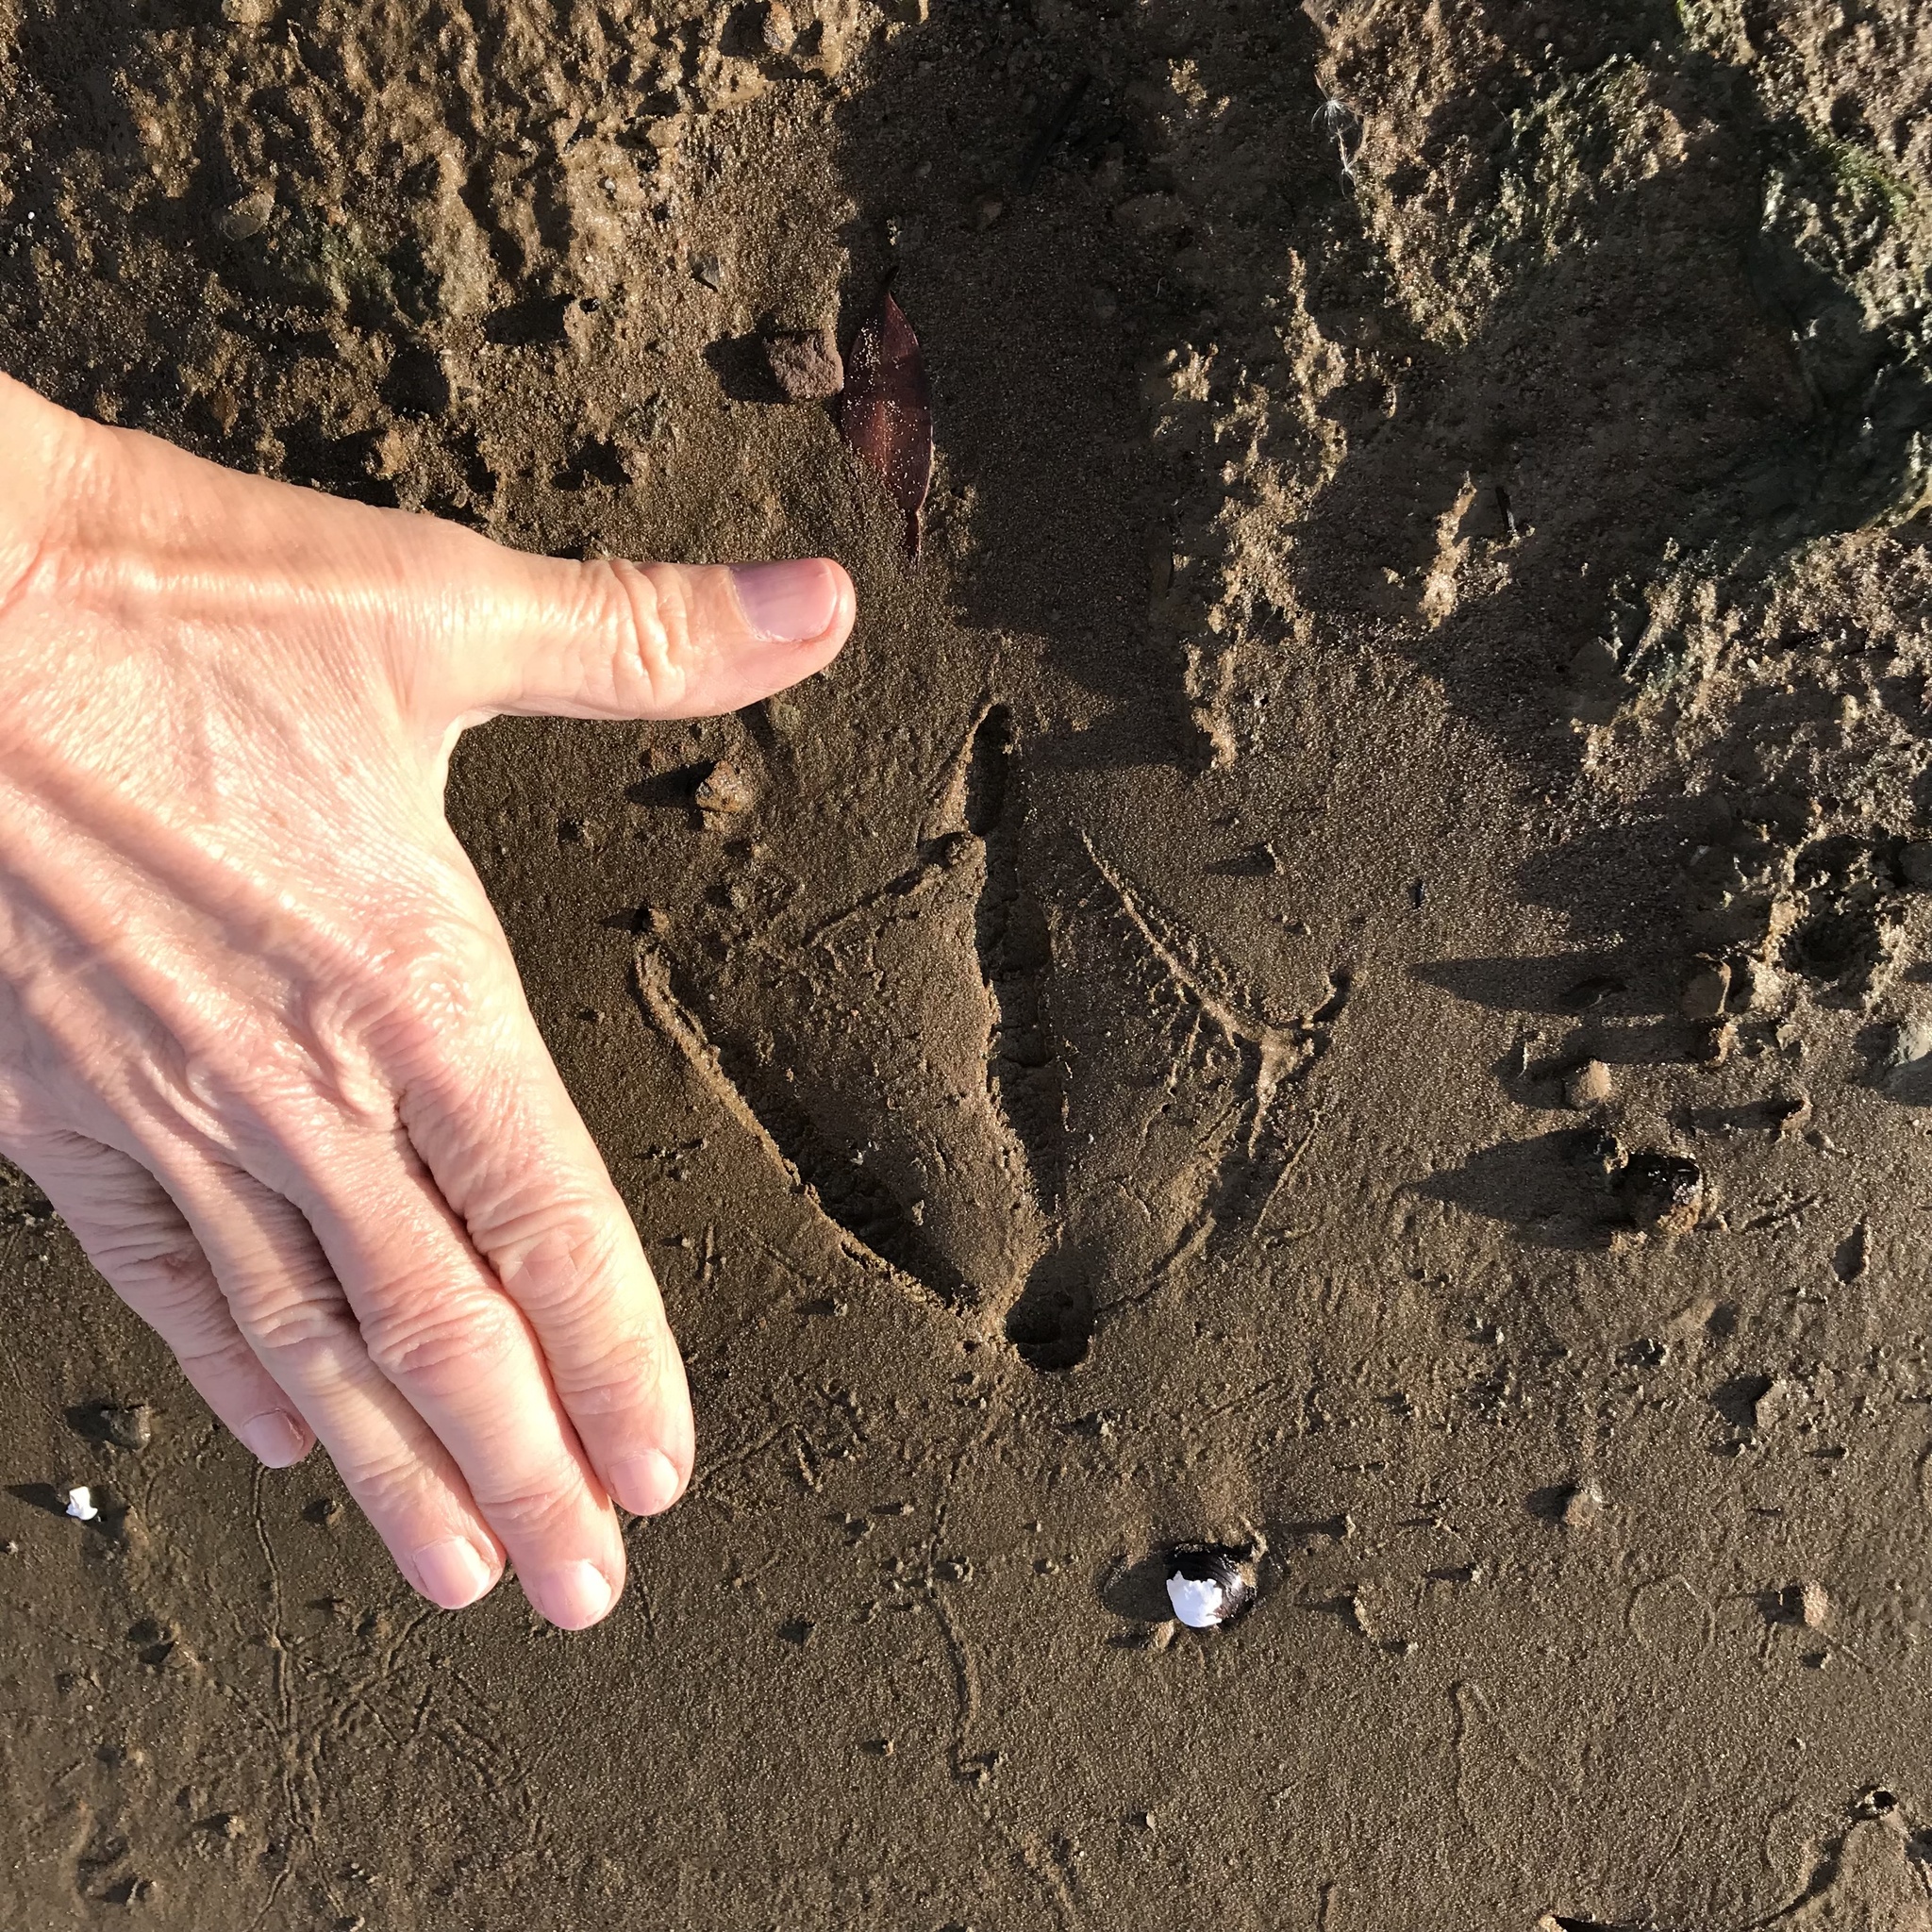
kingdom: Animalia
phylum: Chordata
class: Aves
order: Anseriformes
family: Anatidae
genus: Branta
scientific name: Branta canadensis
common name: Canada goose
